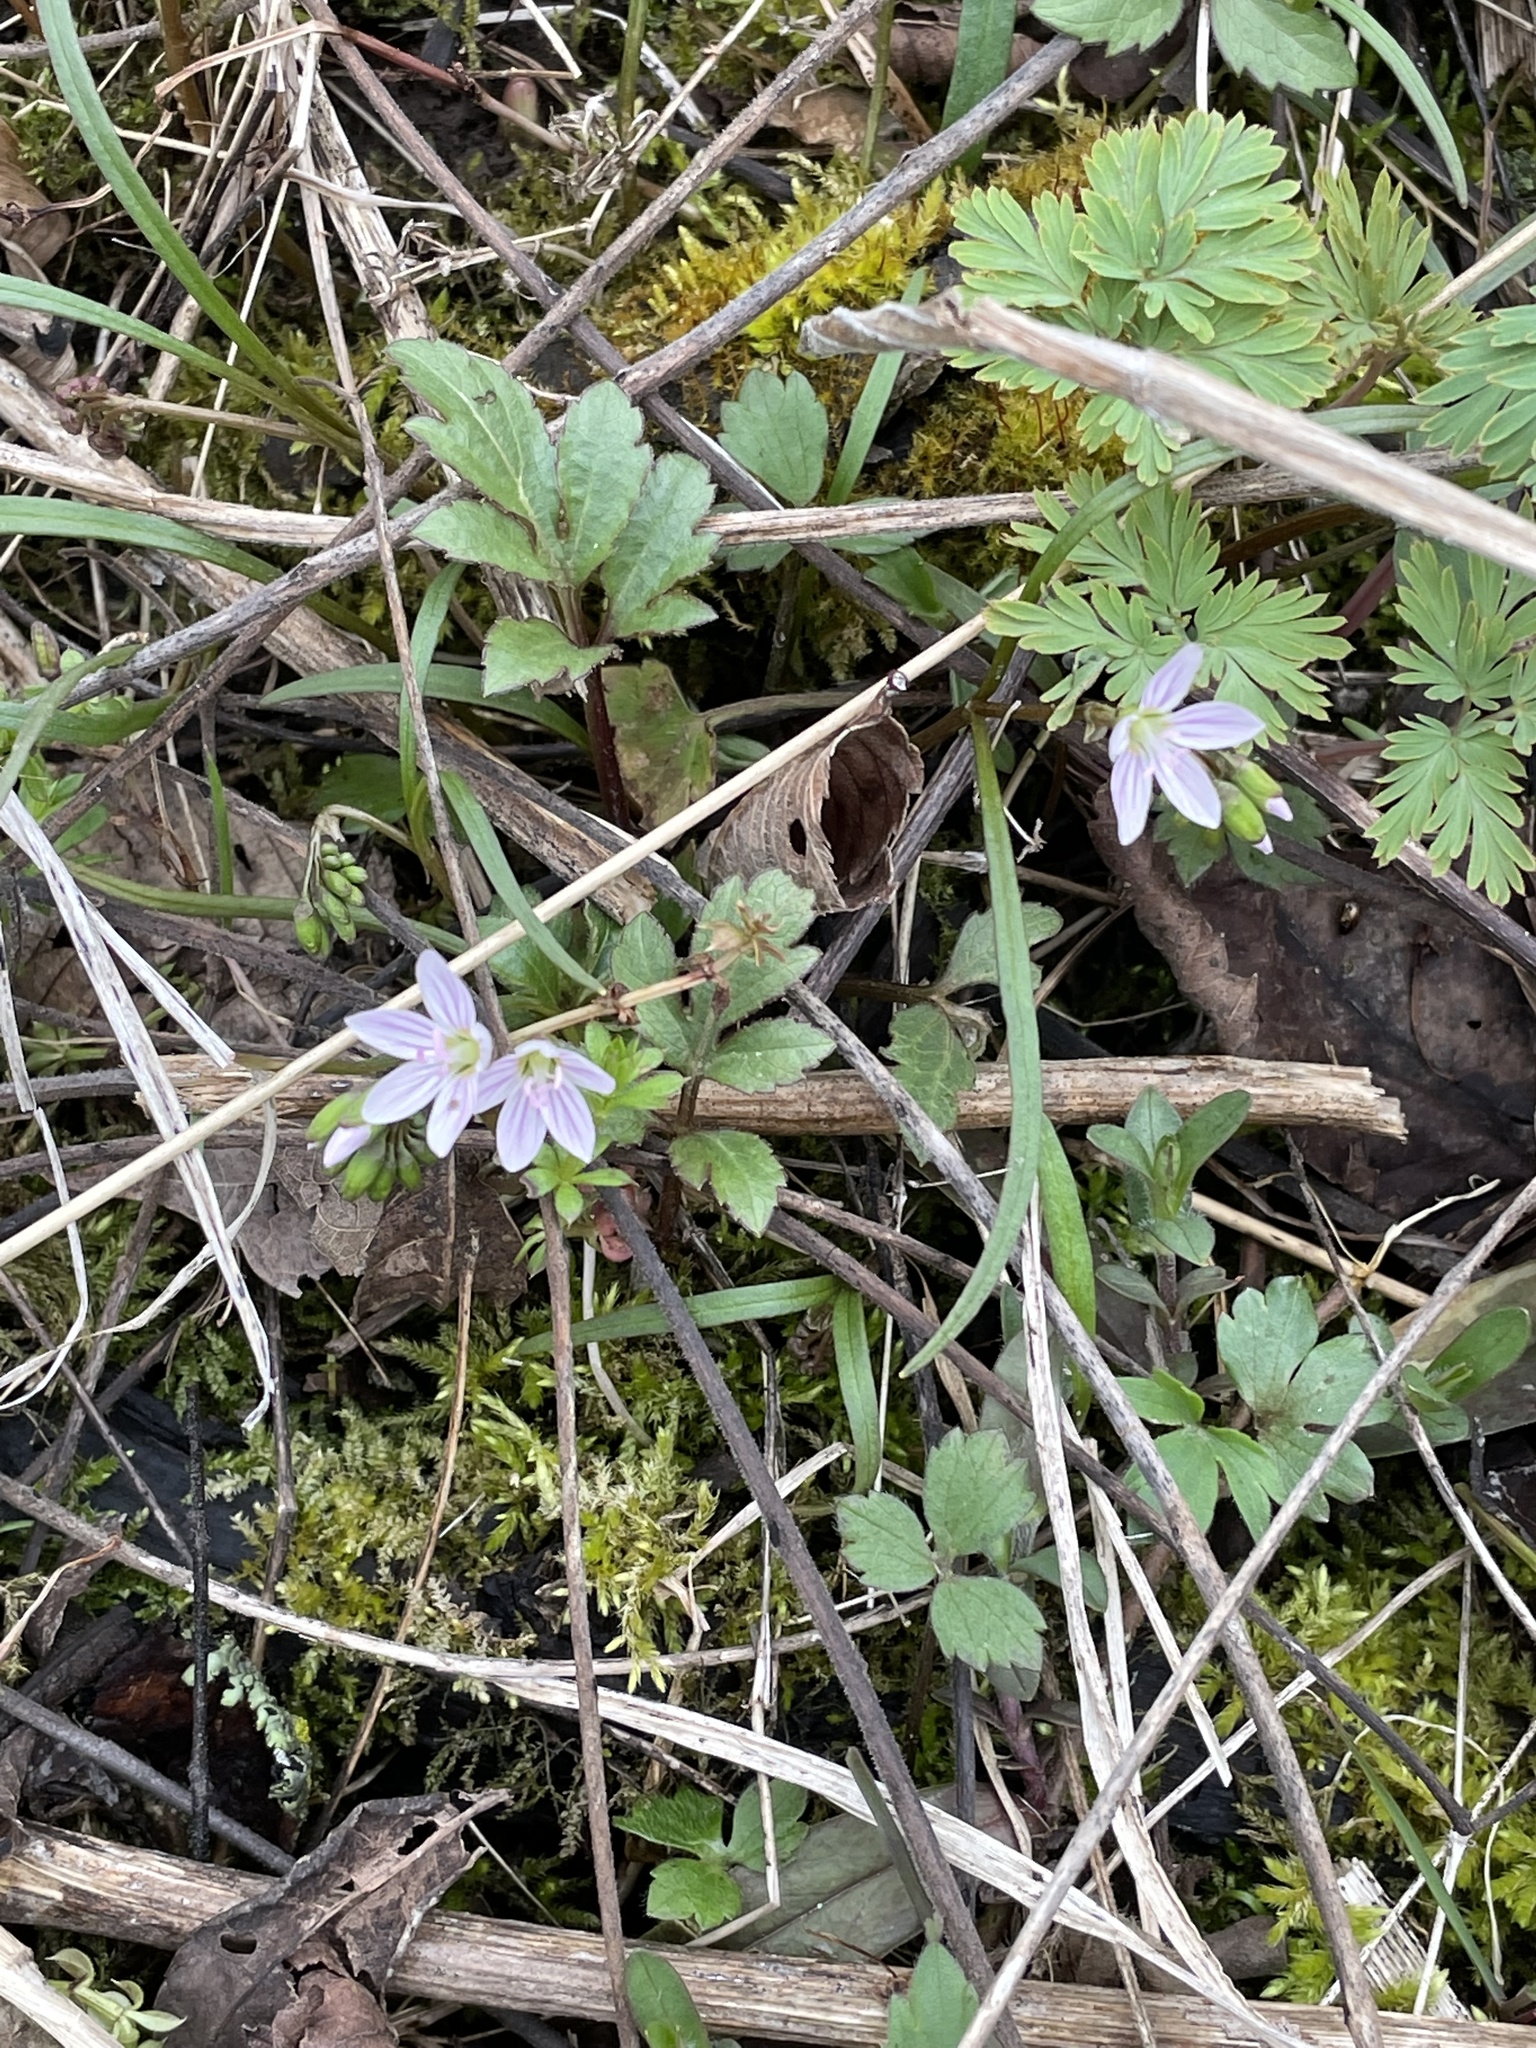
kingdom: Plantae
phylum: Tracheophyta
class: Magnoliopsida
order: Caryophyllales
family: Montiaceae
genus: Claytonia
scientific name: Claytonia virginica
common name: Virginia springbeauty
